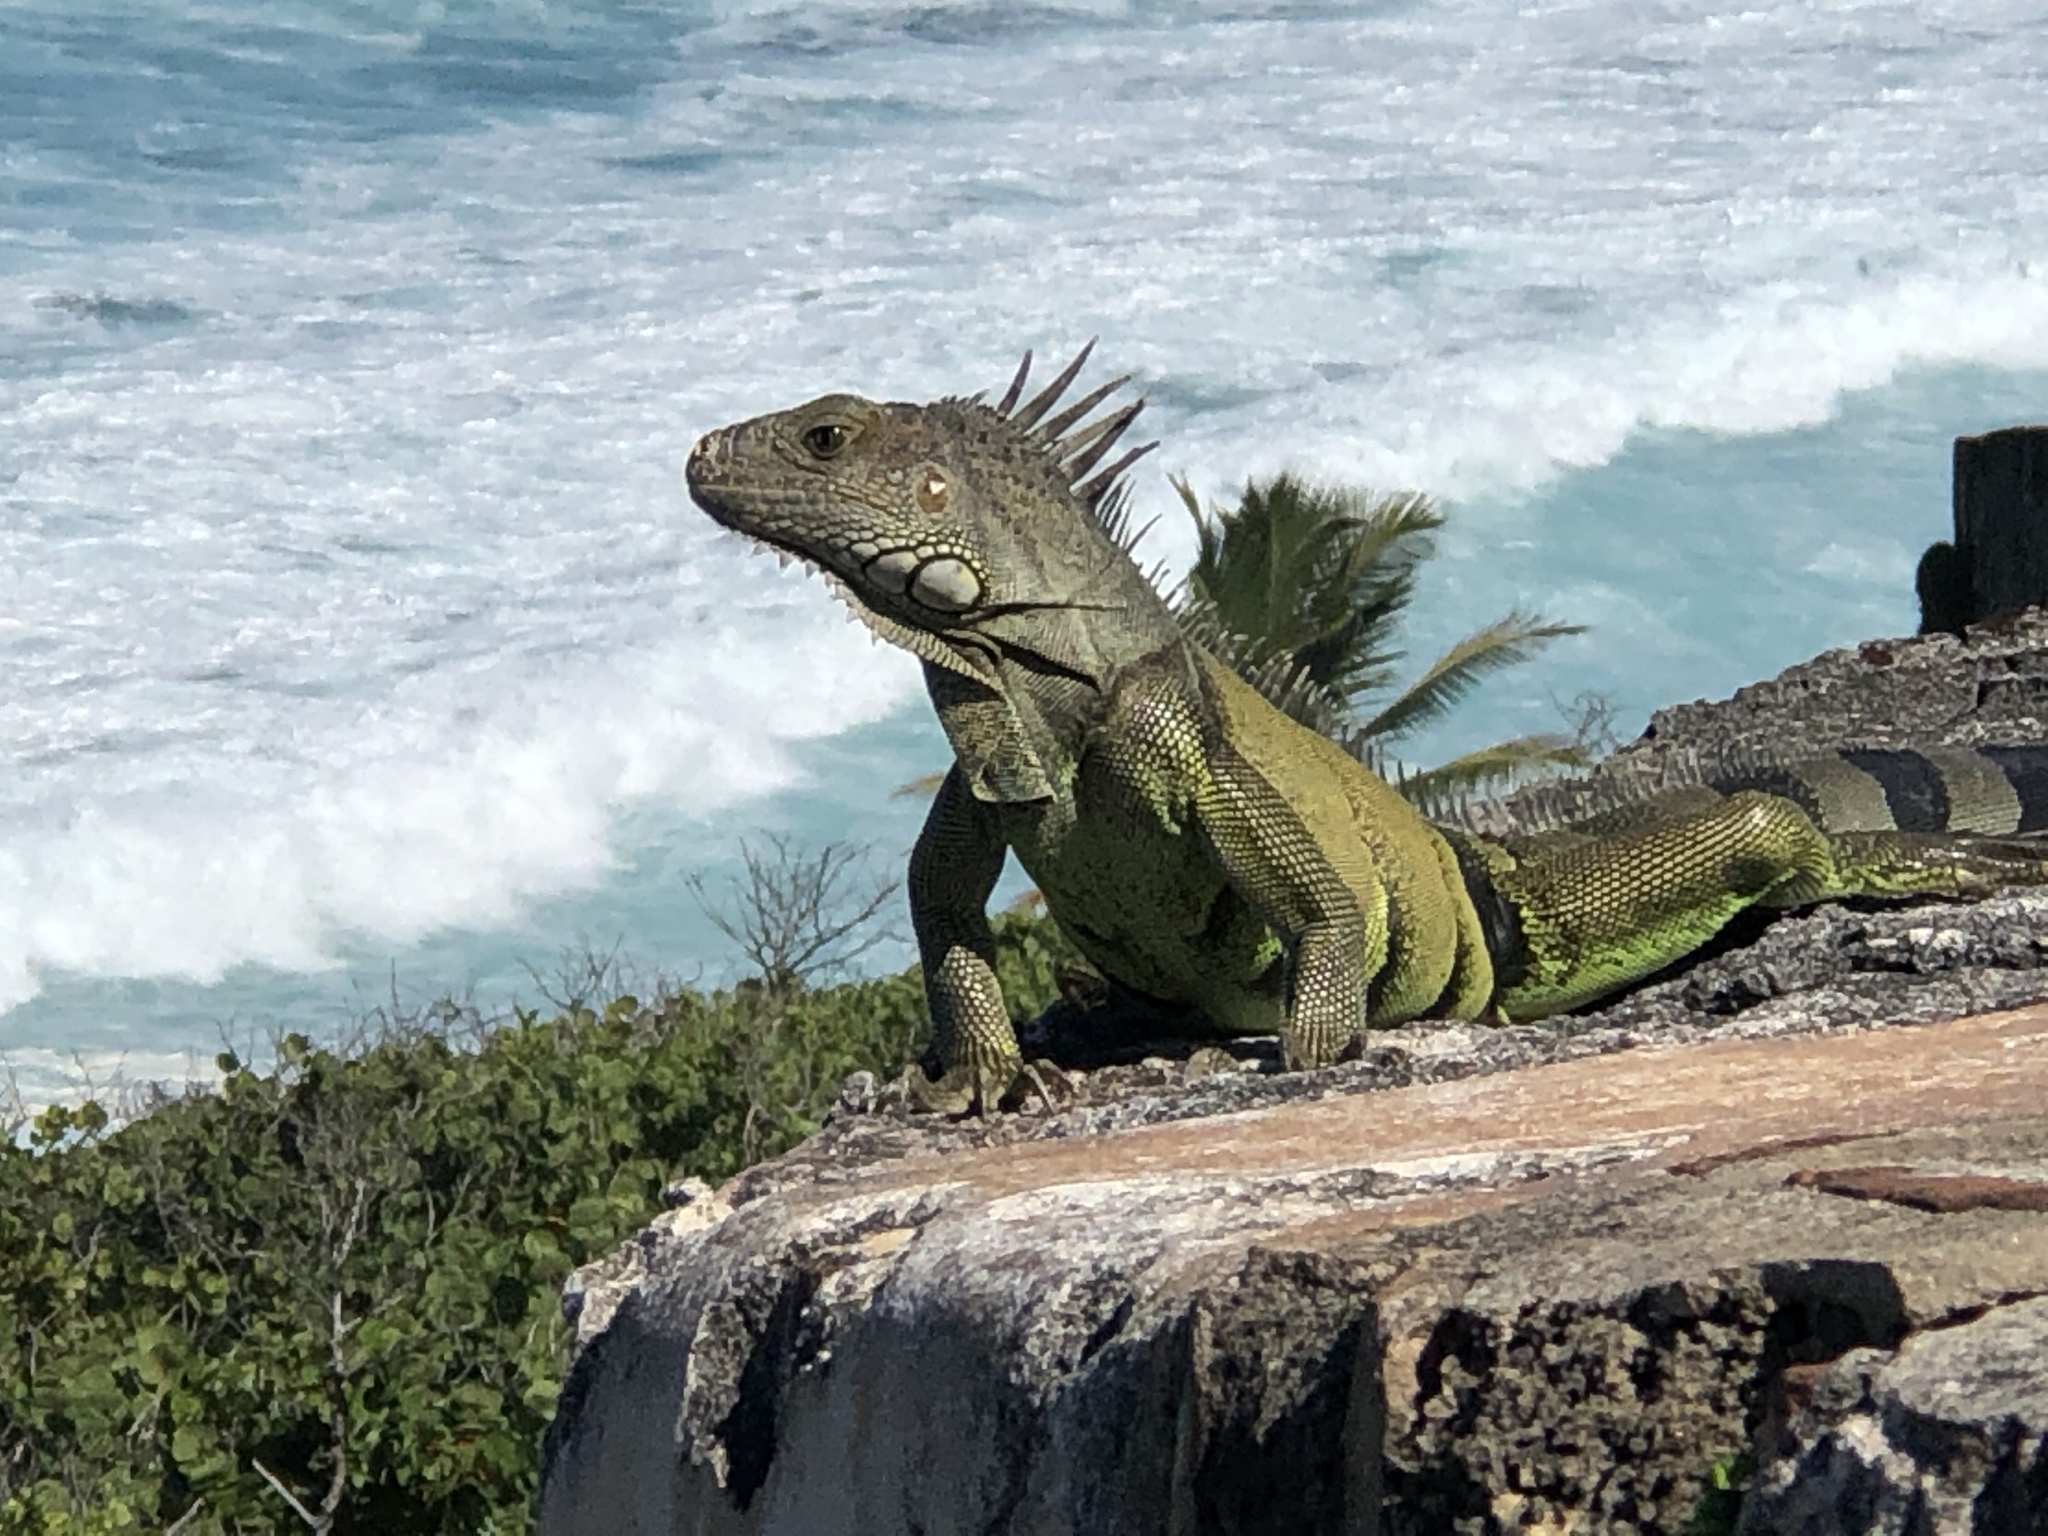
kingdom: Animalia
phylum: Chordata
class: Squamata
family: Iguanidae
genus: Iguana
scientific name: Iguana iguana
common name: Green iguana
